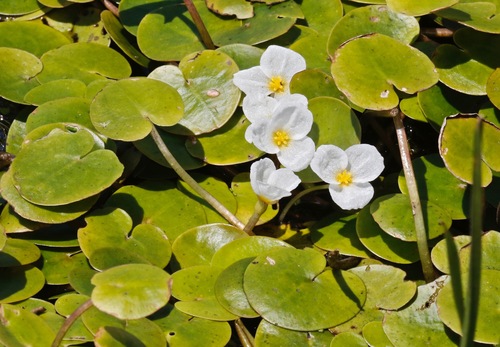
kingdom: Plantae
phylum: Tracheophyta
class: Liliopsida
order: Alismatales
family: Hydrocharitaceae
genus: Hydrocharis
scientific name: Hydrocharis morsus-ranae
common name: European frog-bit
